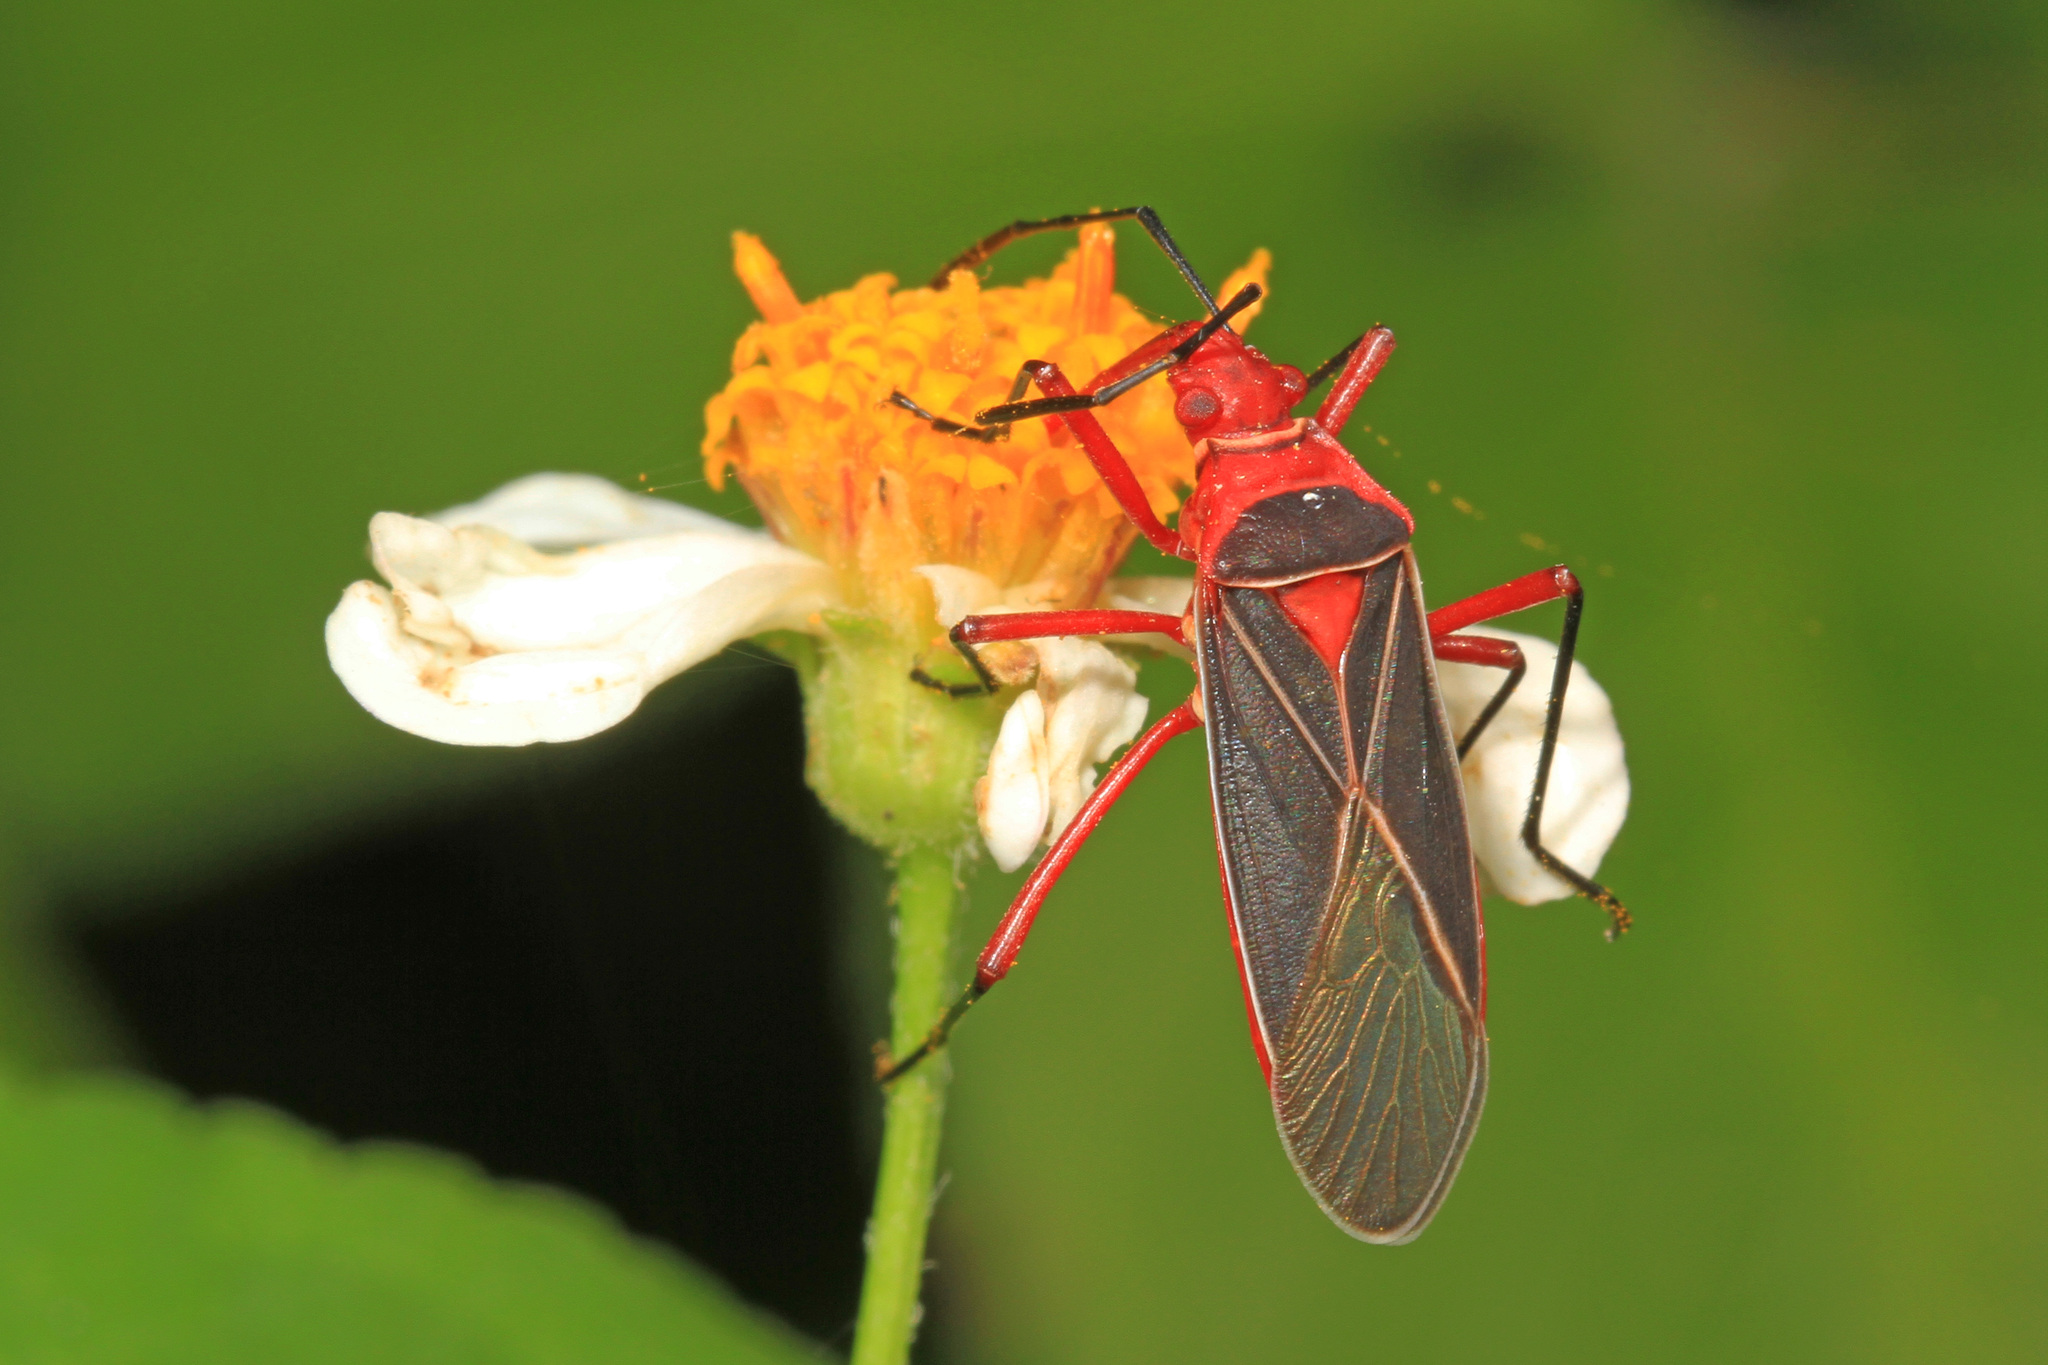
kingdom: Animalia
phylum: Arthropoda
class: Insecta
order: Hemiptera
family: Pyrrhocoridae
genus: Dysdercus
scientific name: Dysdercus suturellus
